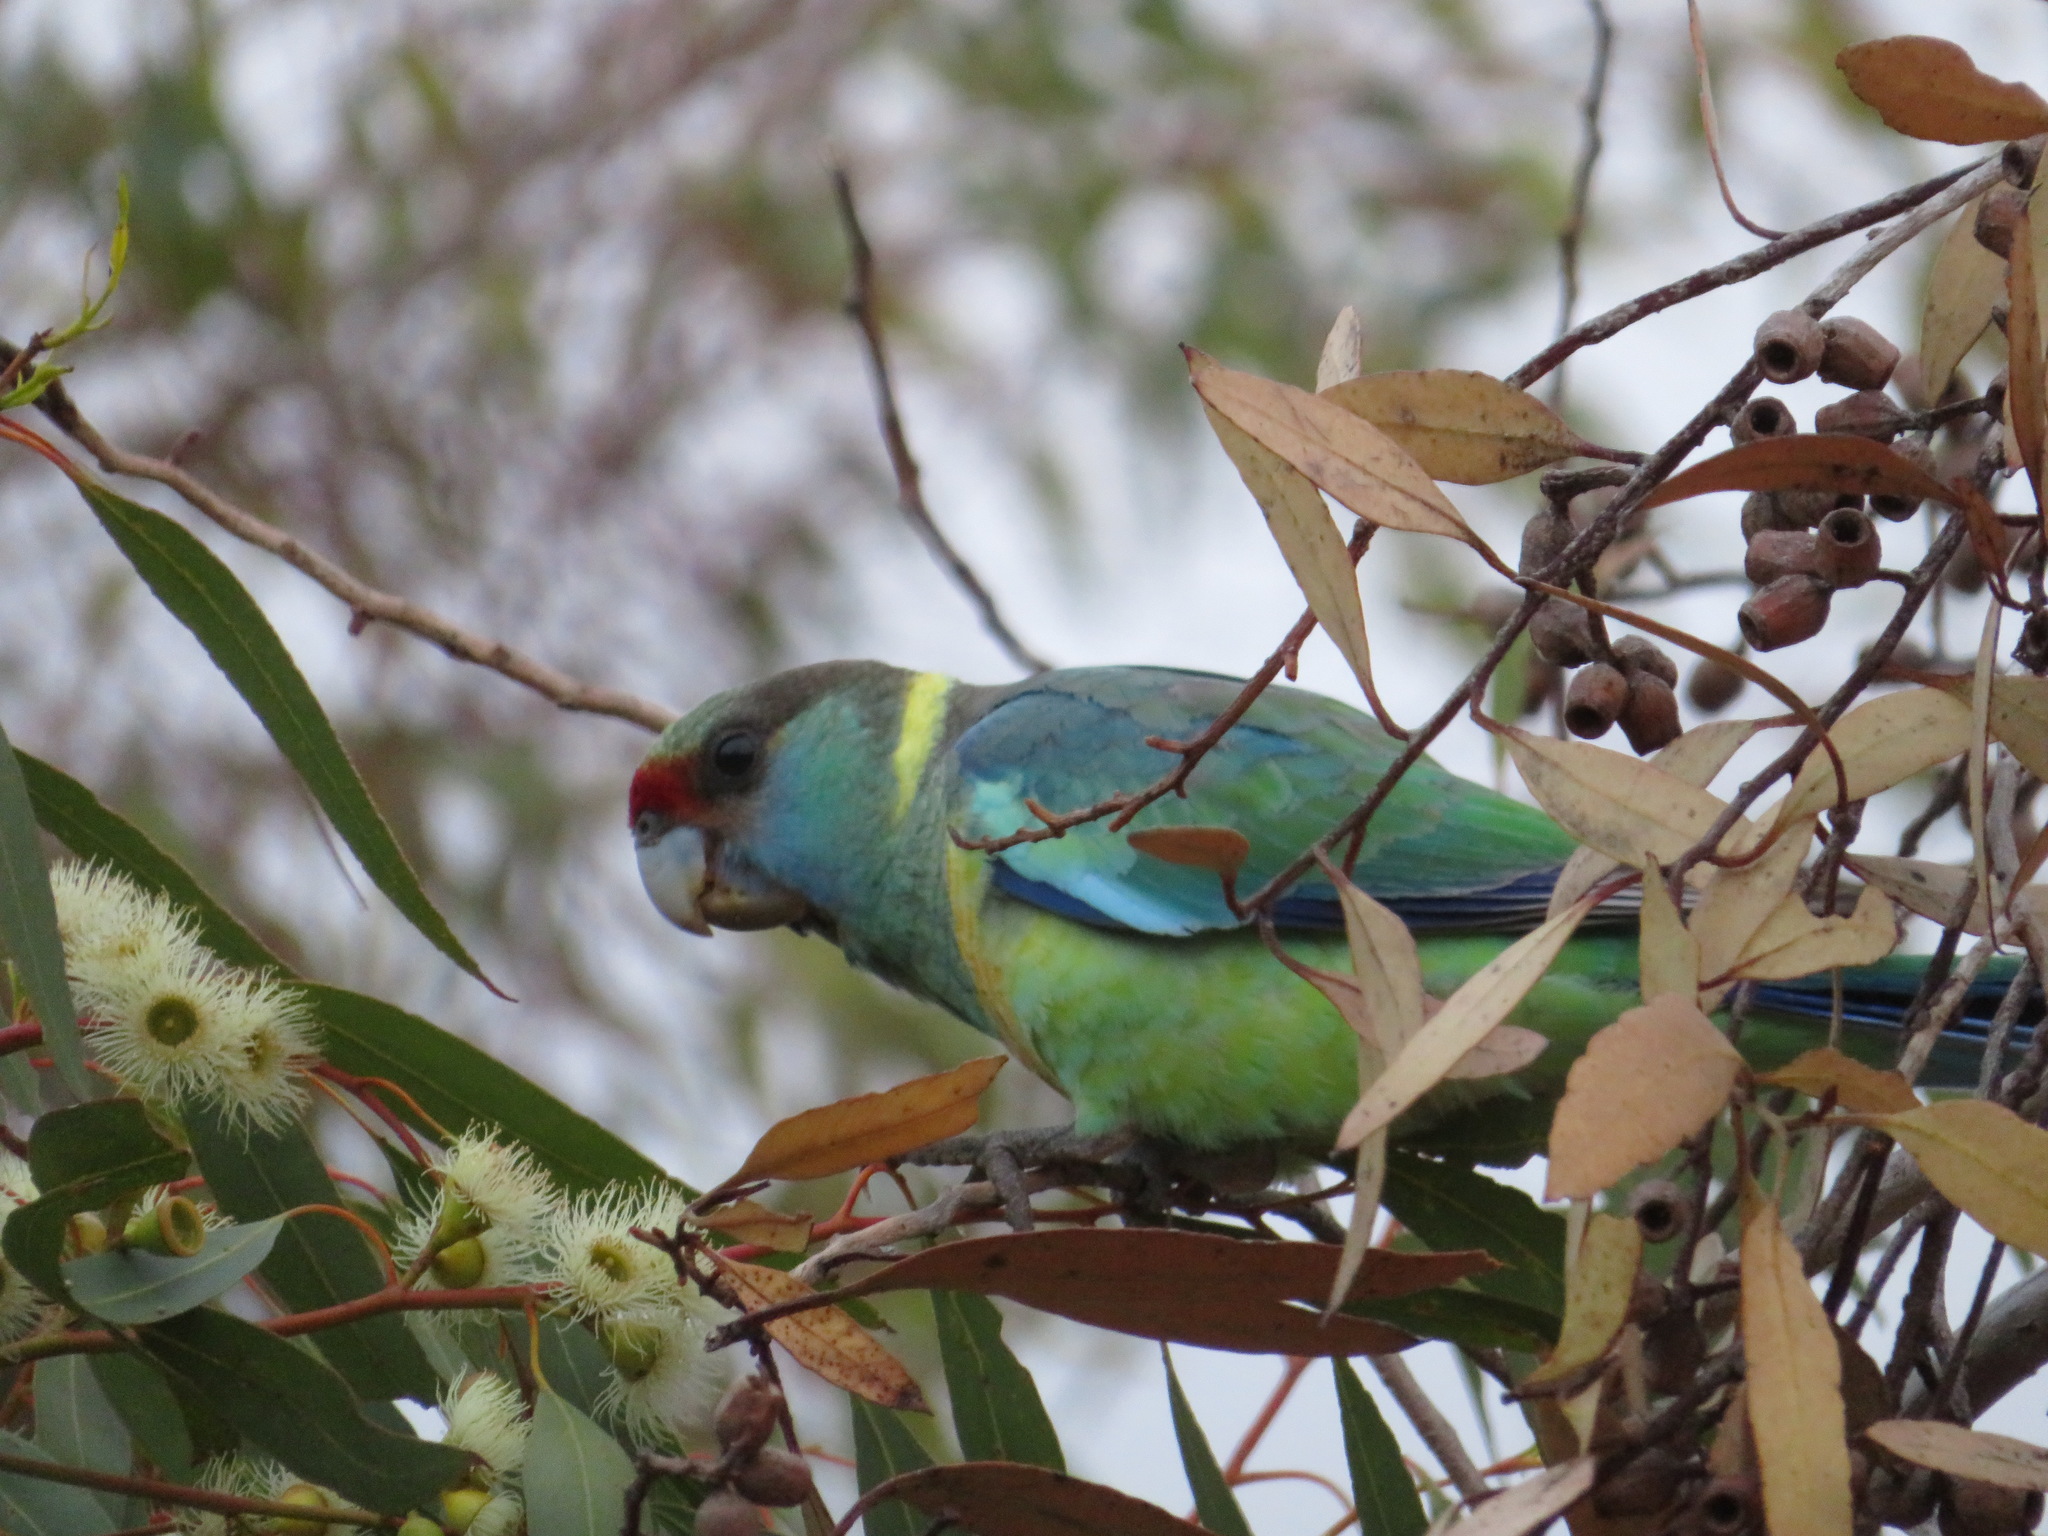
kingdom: Animalia
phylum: Chordata
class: Aves
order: Psittaciformes
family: Psittacidae
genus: Barnardius
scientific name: Barnardius zonarius
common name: Australian ringneck
